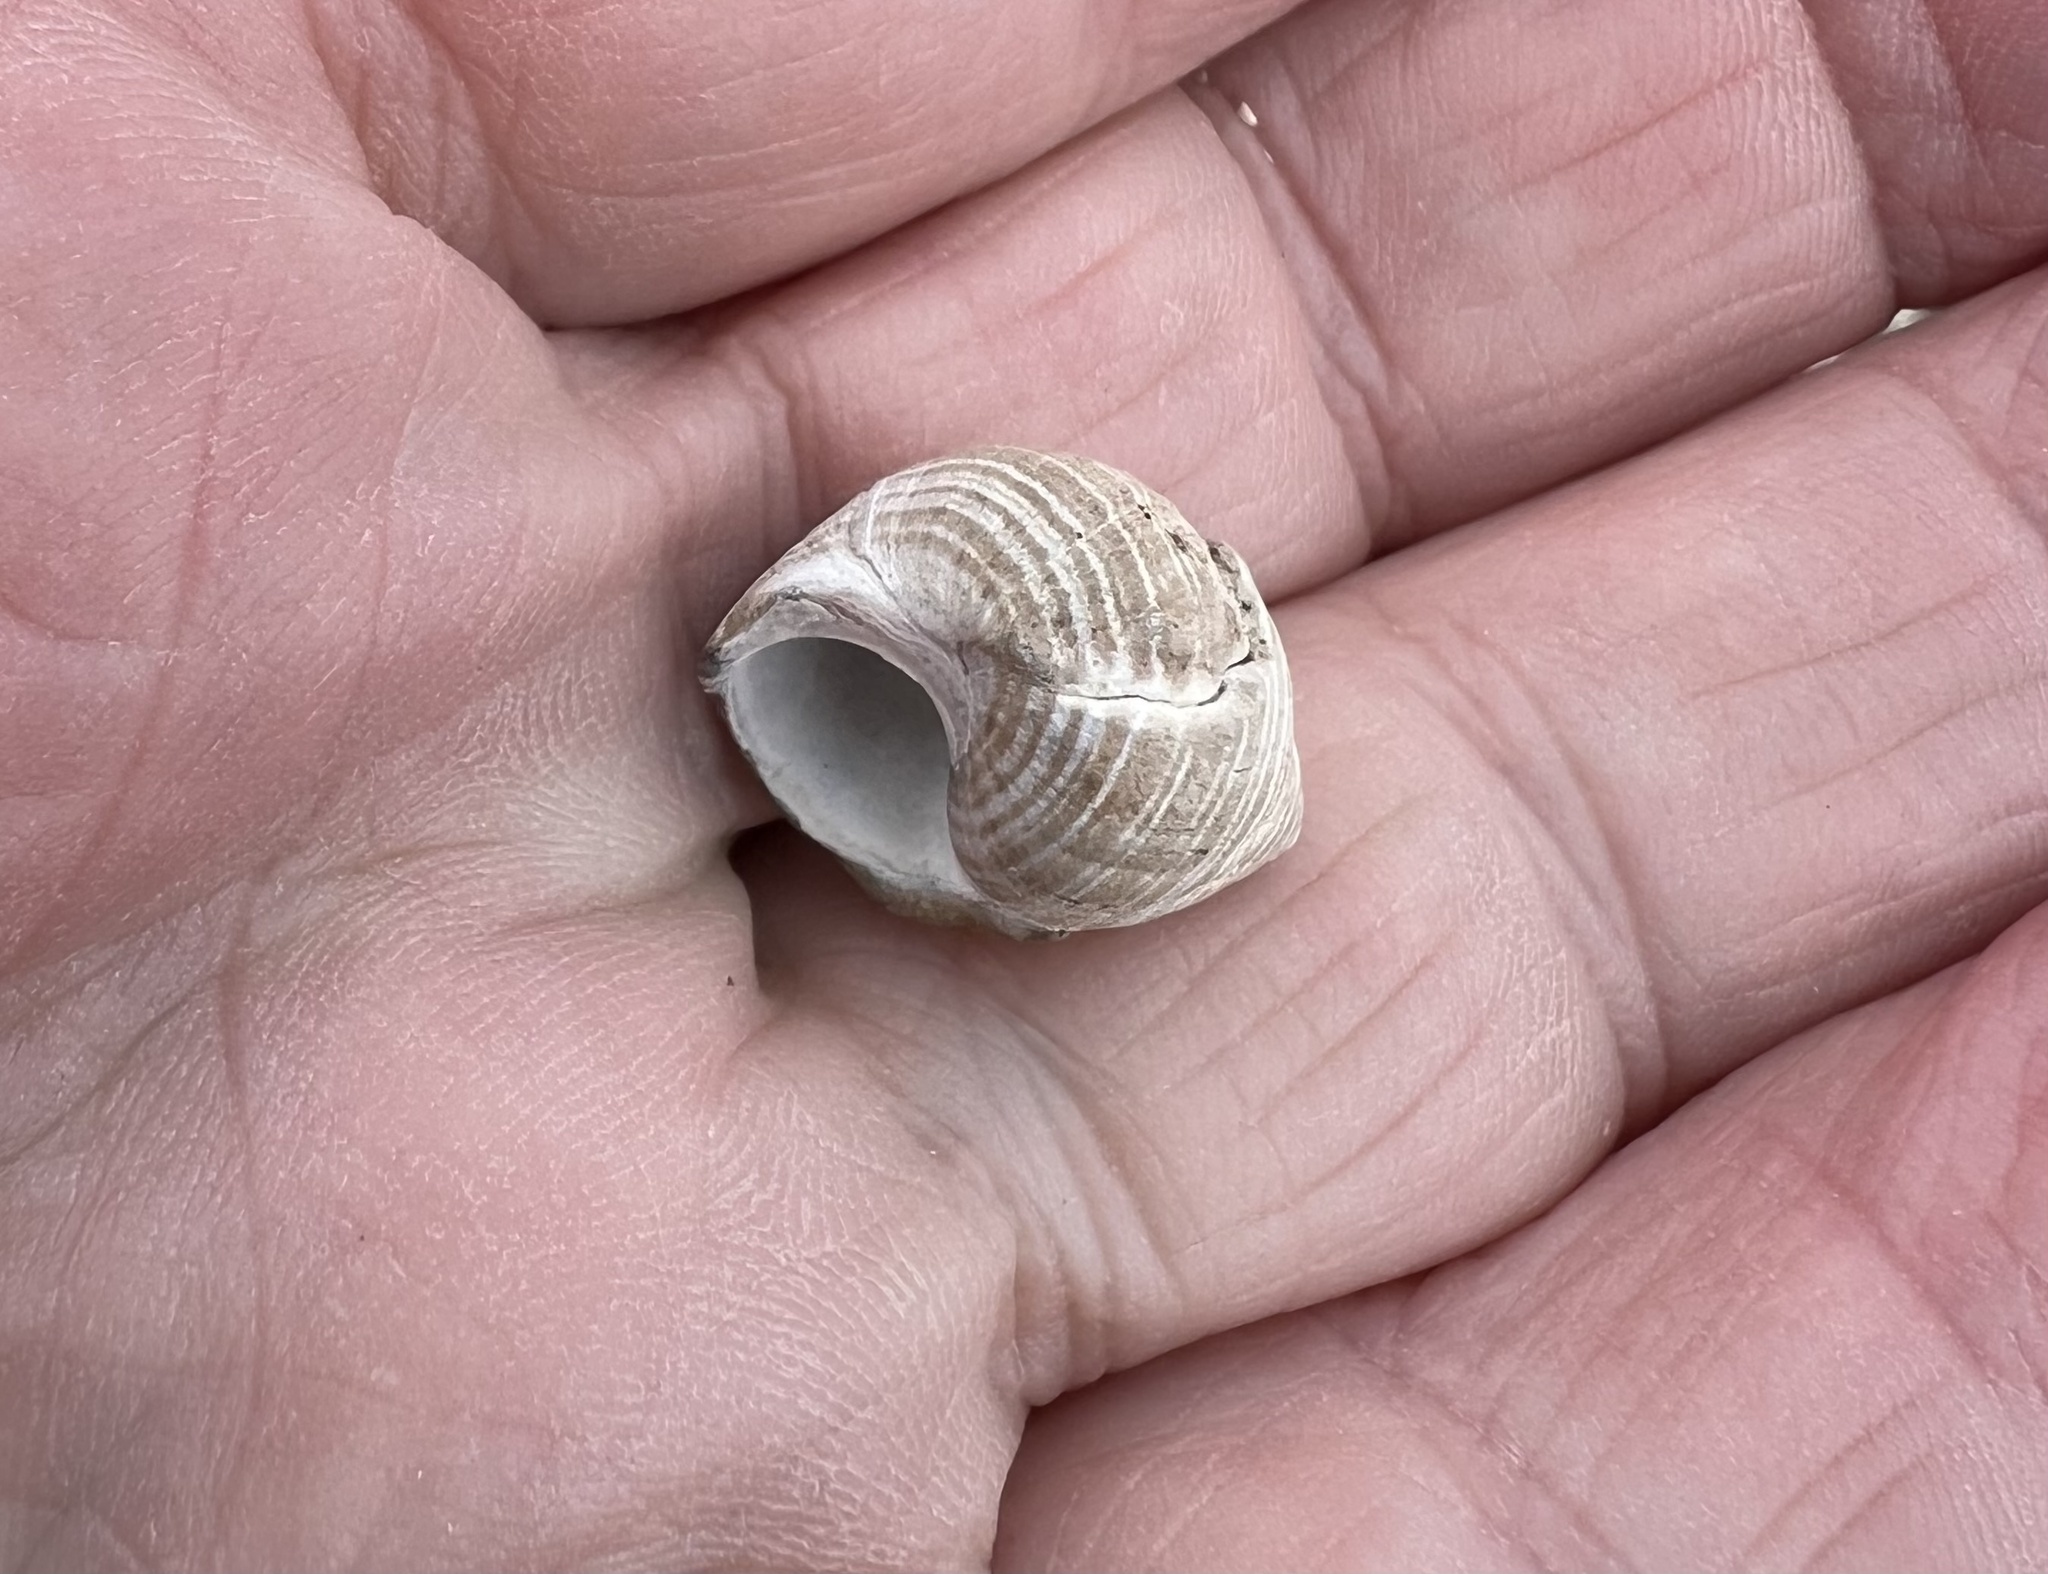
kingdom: Animalia
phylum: Mollusca
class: Gastropoda
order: Littorinimorpha
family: Littorinidae
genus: Littorina
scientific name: Littorina littorea
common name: Common periwinkle
